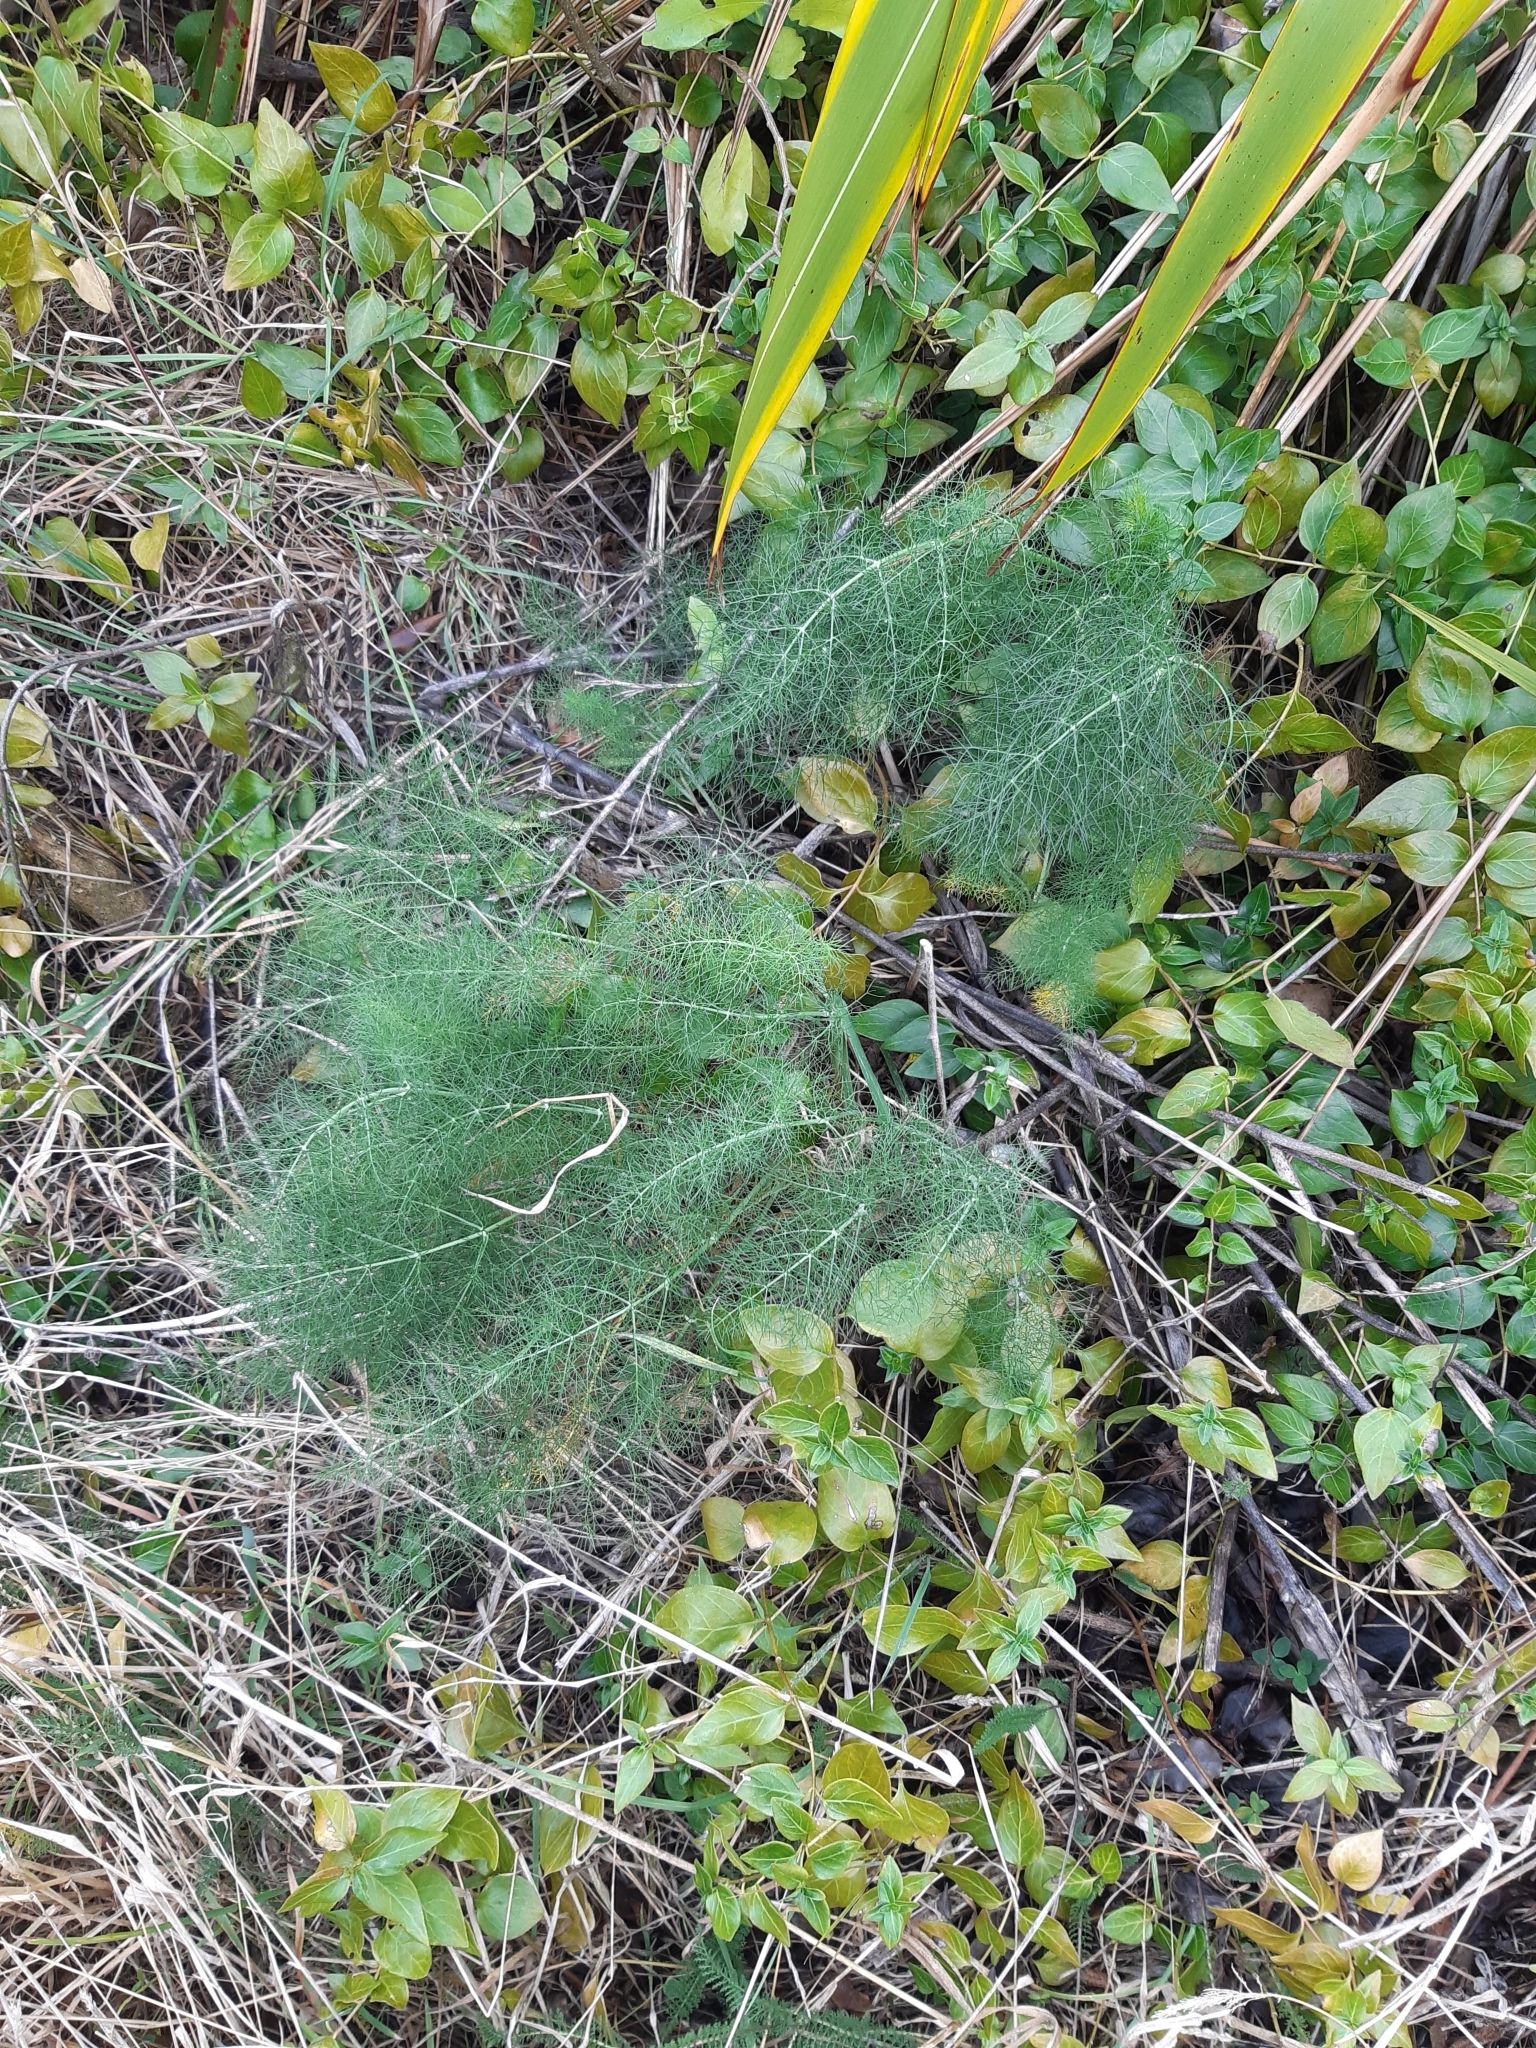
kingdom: Plantae
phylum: Tracheophyta
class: Magnoliopsida
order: Apiales
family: Apiaceae
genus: Foeniculum
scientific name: Foeniculum vulgare
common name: Fennel
